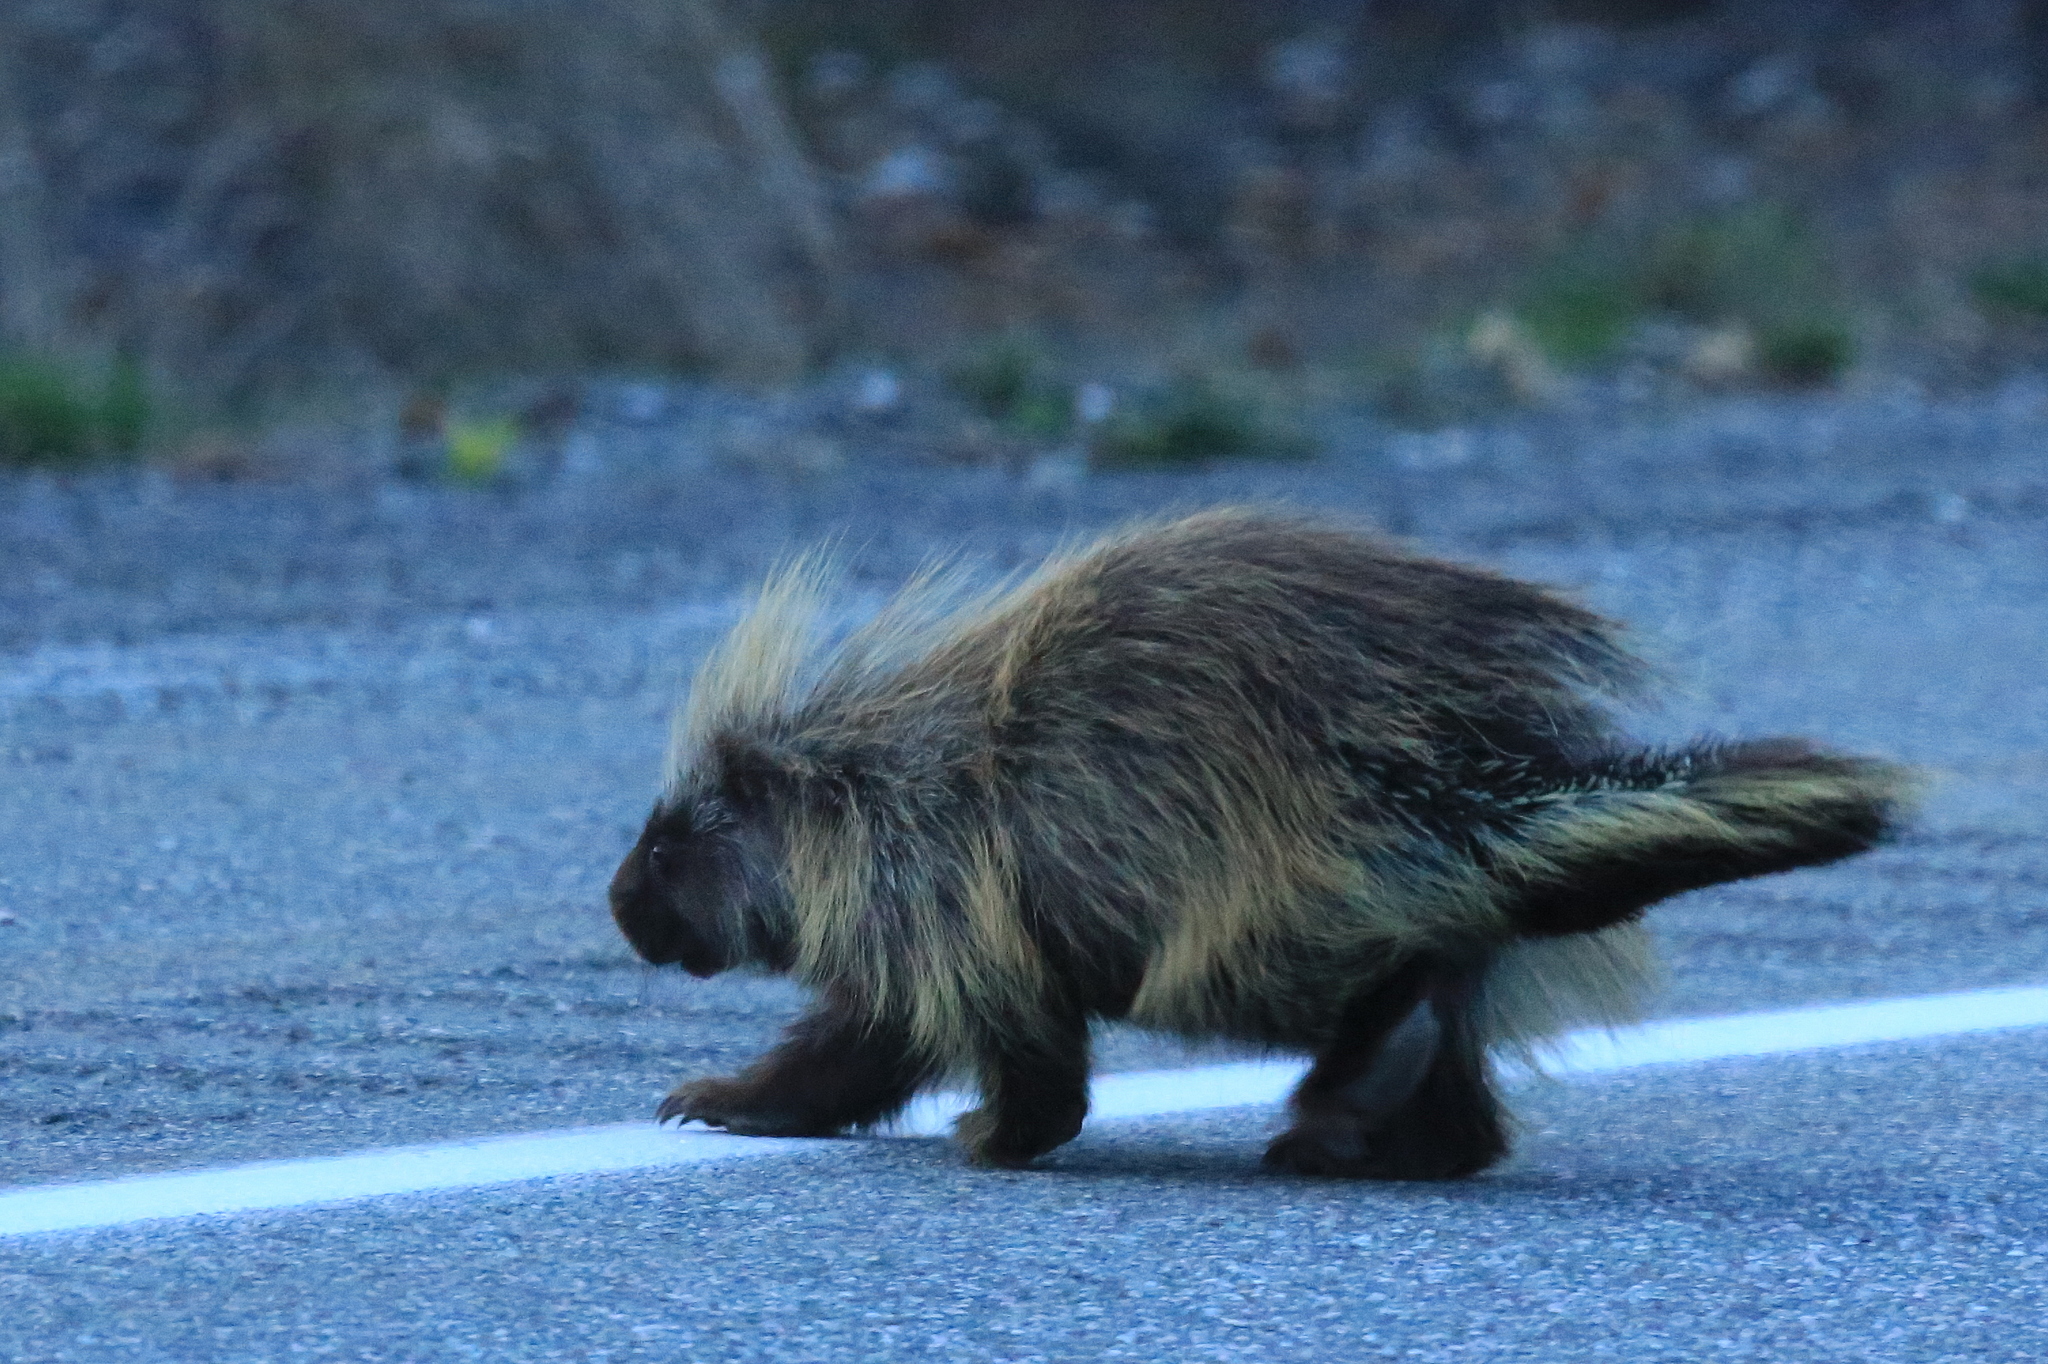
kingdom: Animalia
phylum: Chordata
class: Mammalia
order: Rodentia
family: Erethizontidae
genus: Erethizon
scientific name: Erethizon dorsatus
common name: North american porcupine
